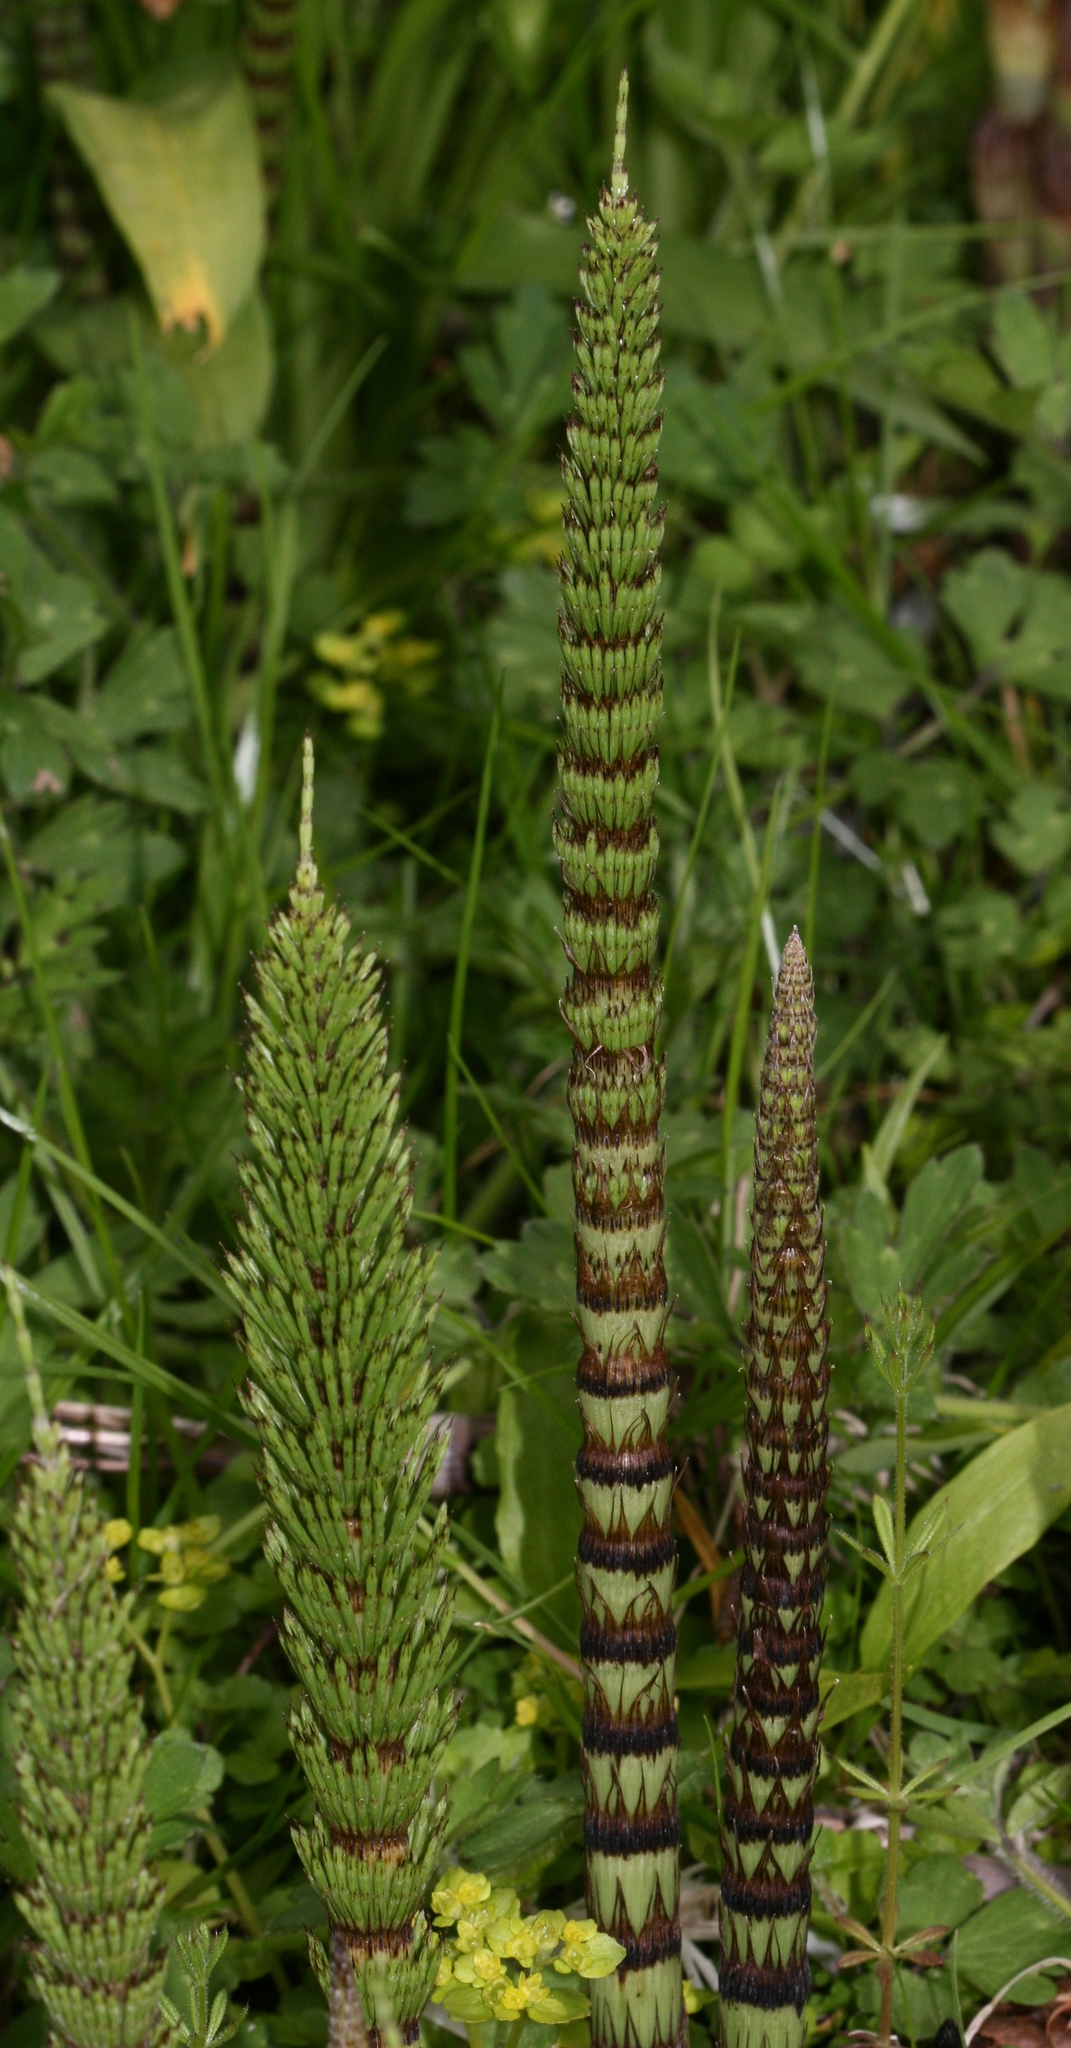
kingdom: Plantae
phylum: Tracheophyta
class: Polypodiopsida
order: Equisetales
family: Equisetaceae
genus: Equisetum
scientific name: Equisetum telmateia
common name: Great horsetail
